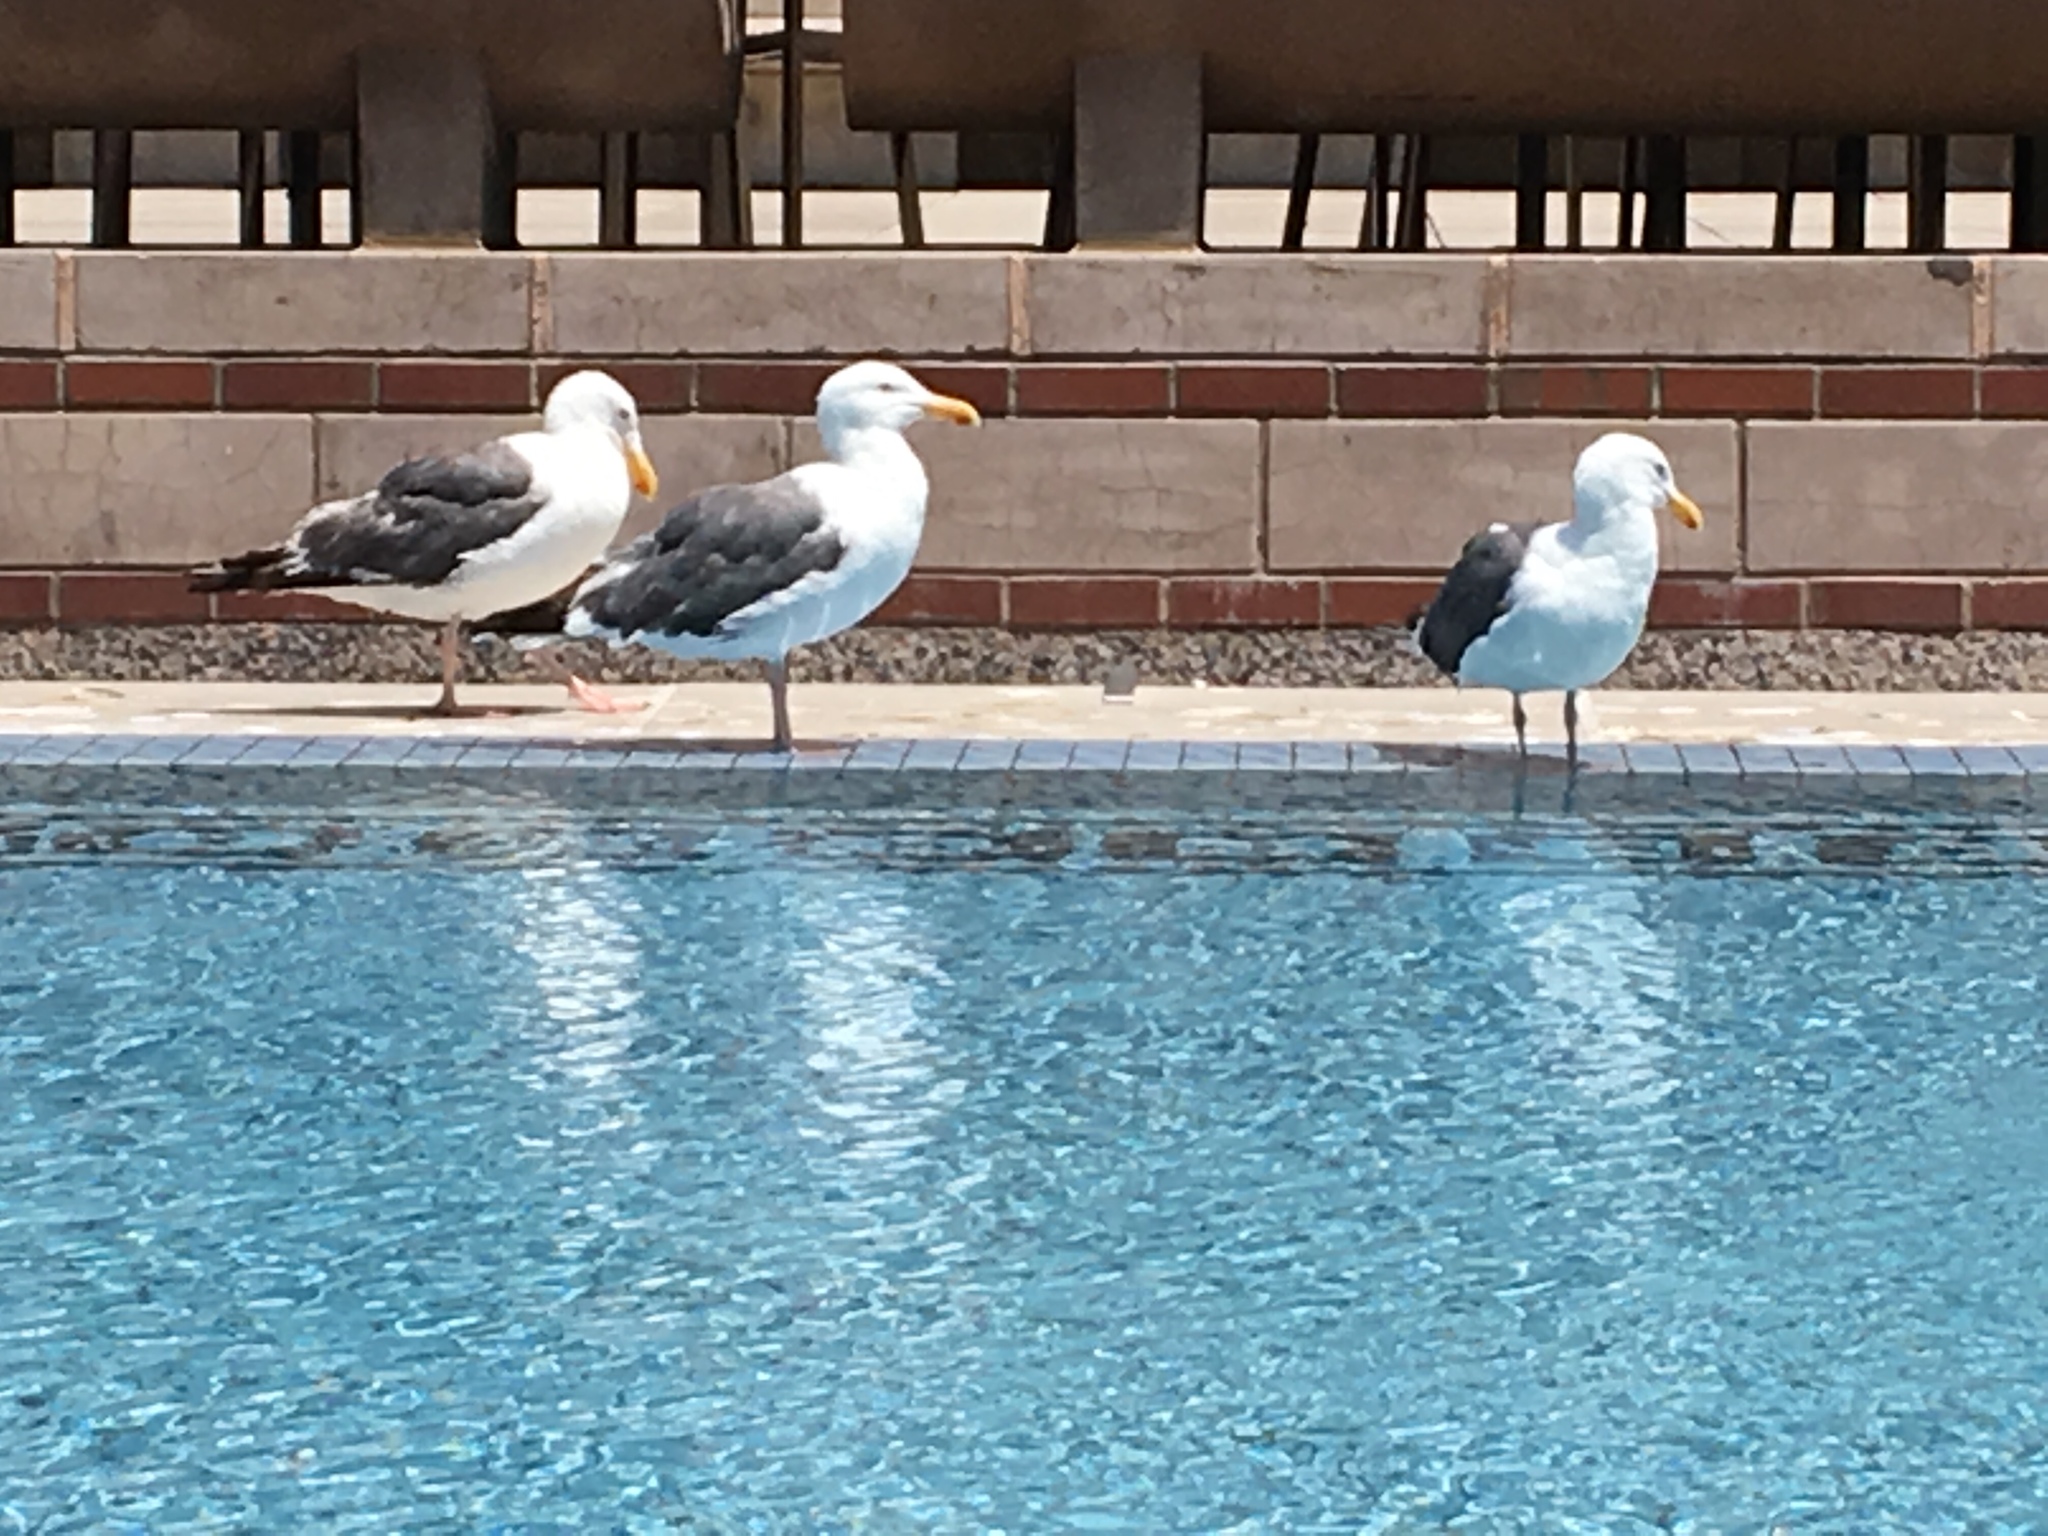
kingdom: Animalia
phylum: Chordata
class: Aves
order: Charadriiformes
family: Laridae
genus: Larus
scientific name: Larus occidentalis
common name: Western gull
